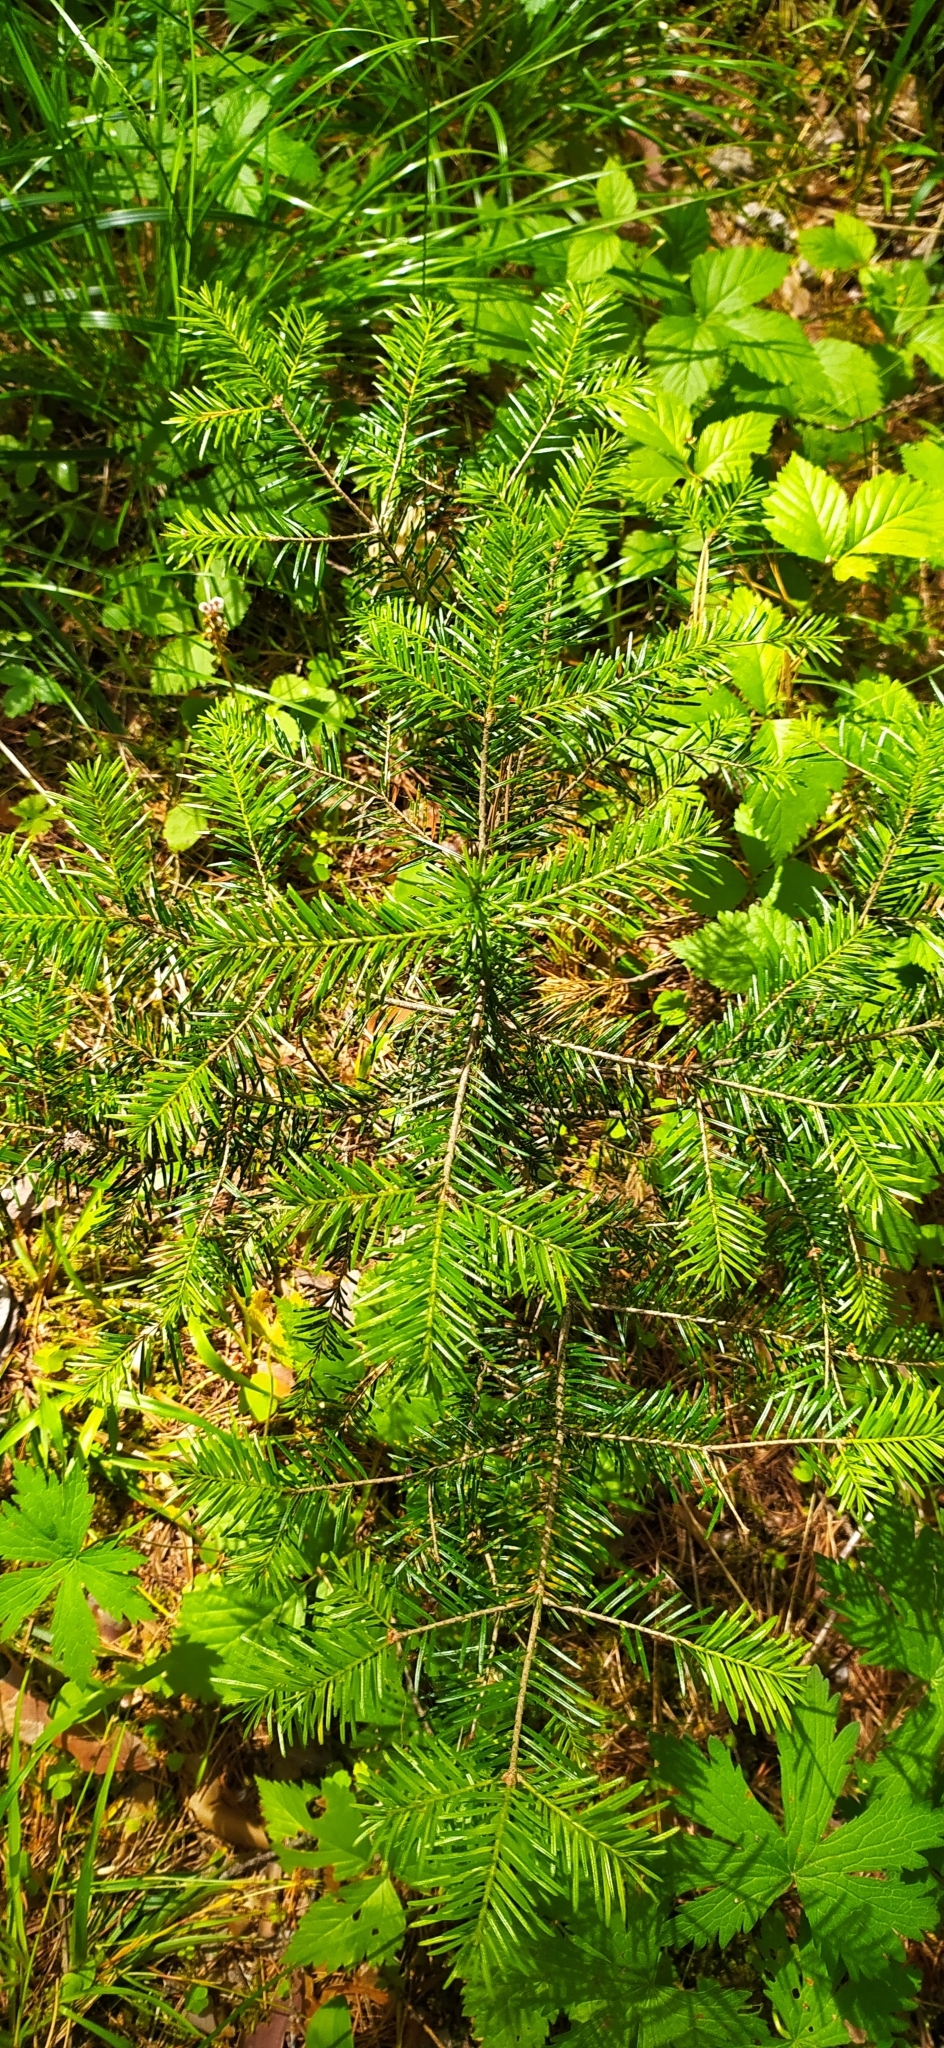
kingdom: Plantae
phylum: Tracheophyta
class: Pinopsida
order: Pinales
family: Pinaceae
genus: Abies
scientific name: Abies sibirica
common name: Siberian fir
